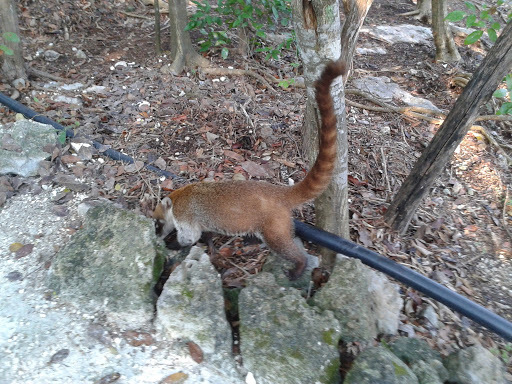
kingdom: Animalia
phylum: Chordata
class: Mammalia
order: Carnivora
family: Procyonidae
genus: Nasua
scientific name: Nasua narica
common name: White-nosed coati
